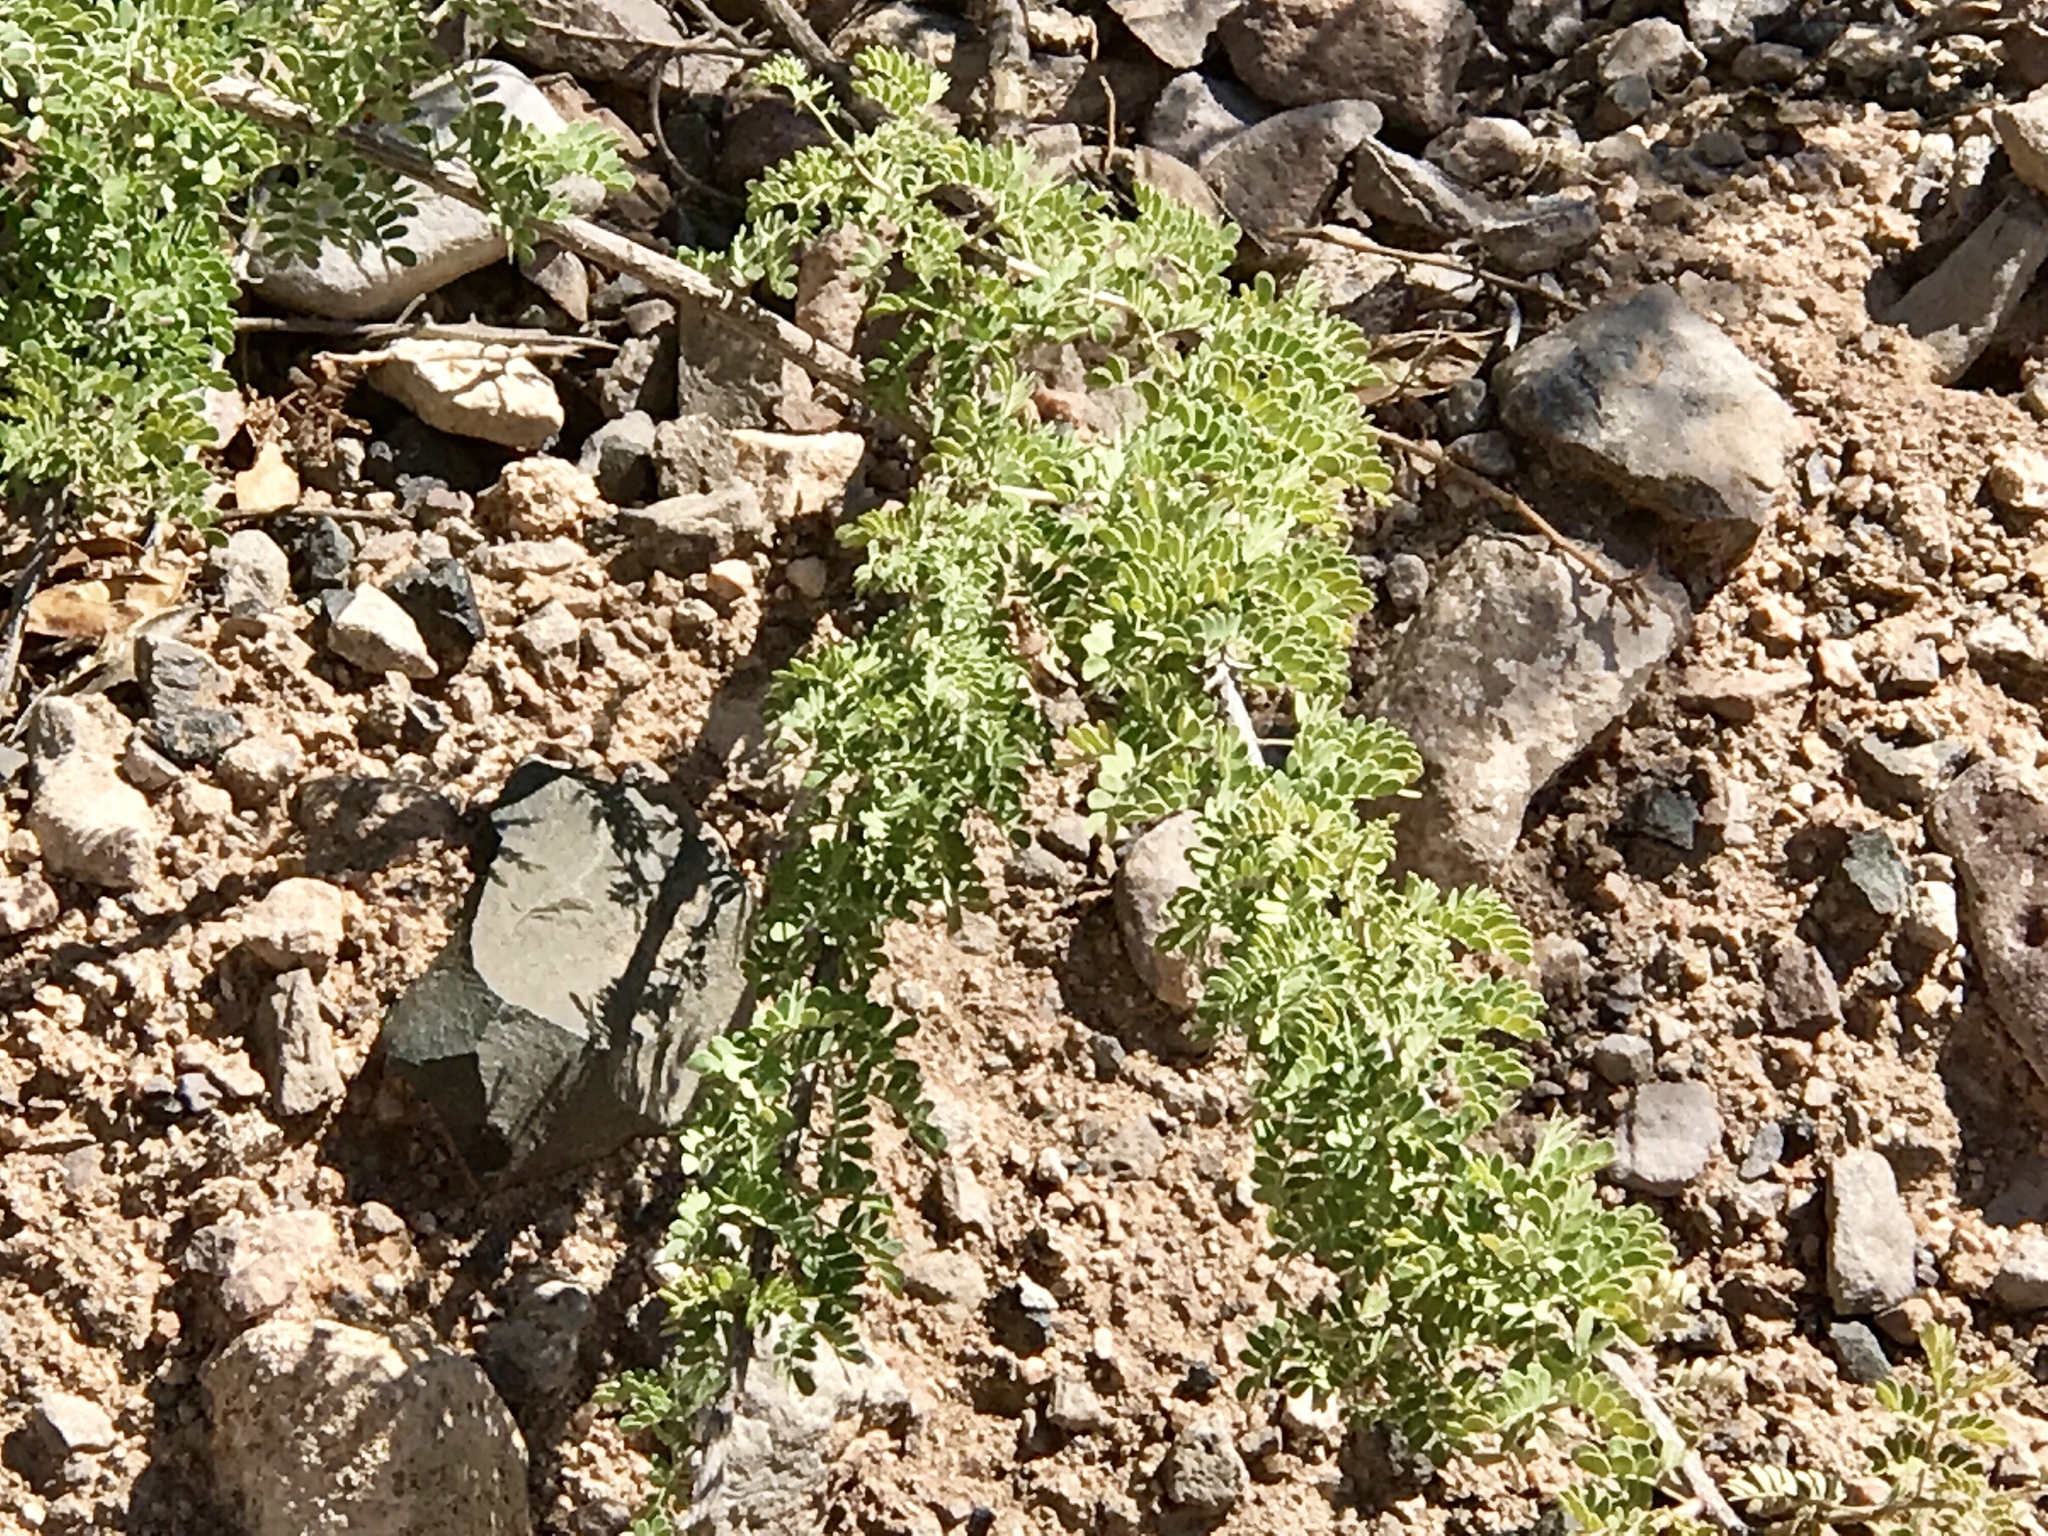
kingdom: Plantae
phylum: Tracheophyta
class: Magnoliopsida
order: Fabales
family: Fabaceae
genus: Senegalia
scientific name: Senegalia greggii
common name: Texas-mimosa
